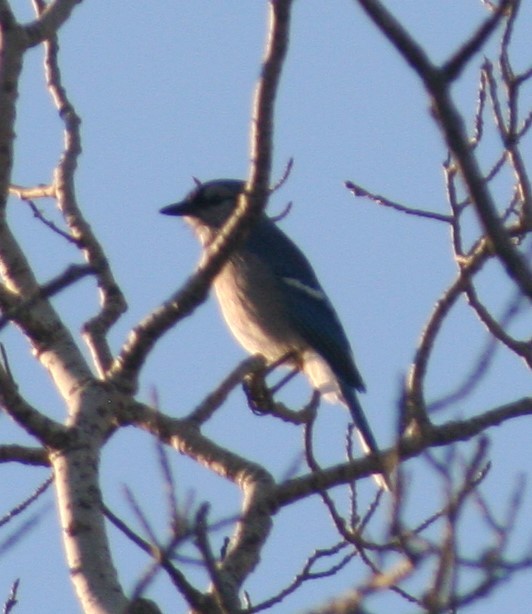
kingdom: Animalia
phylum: Chordata
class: Aves
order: Passeriformes
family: Corvidae
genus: Cyanocitta
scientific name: Cyanocitta cristata
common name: Blue jay
